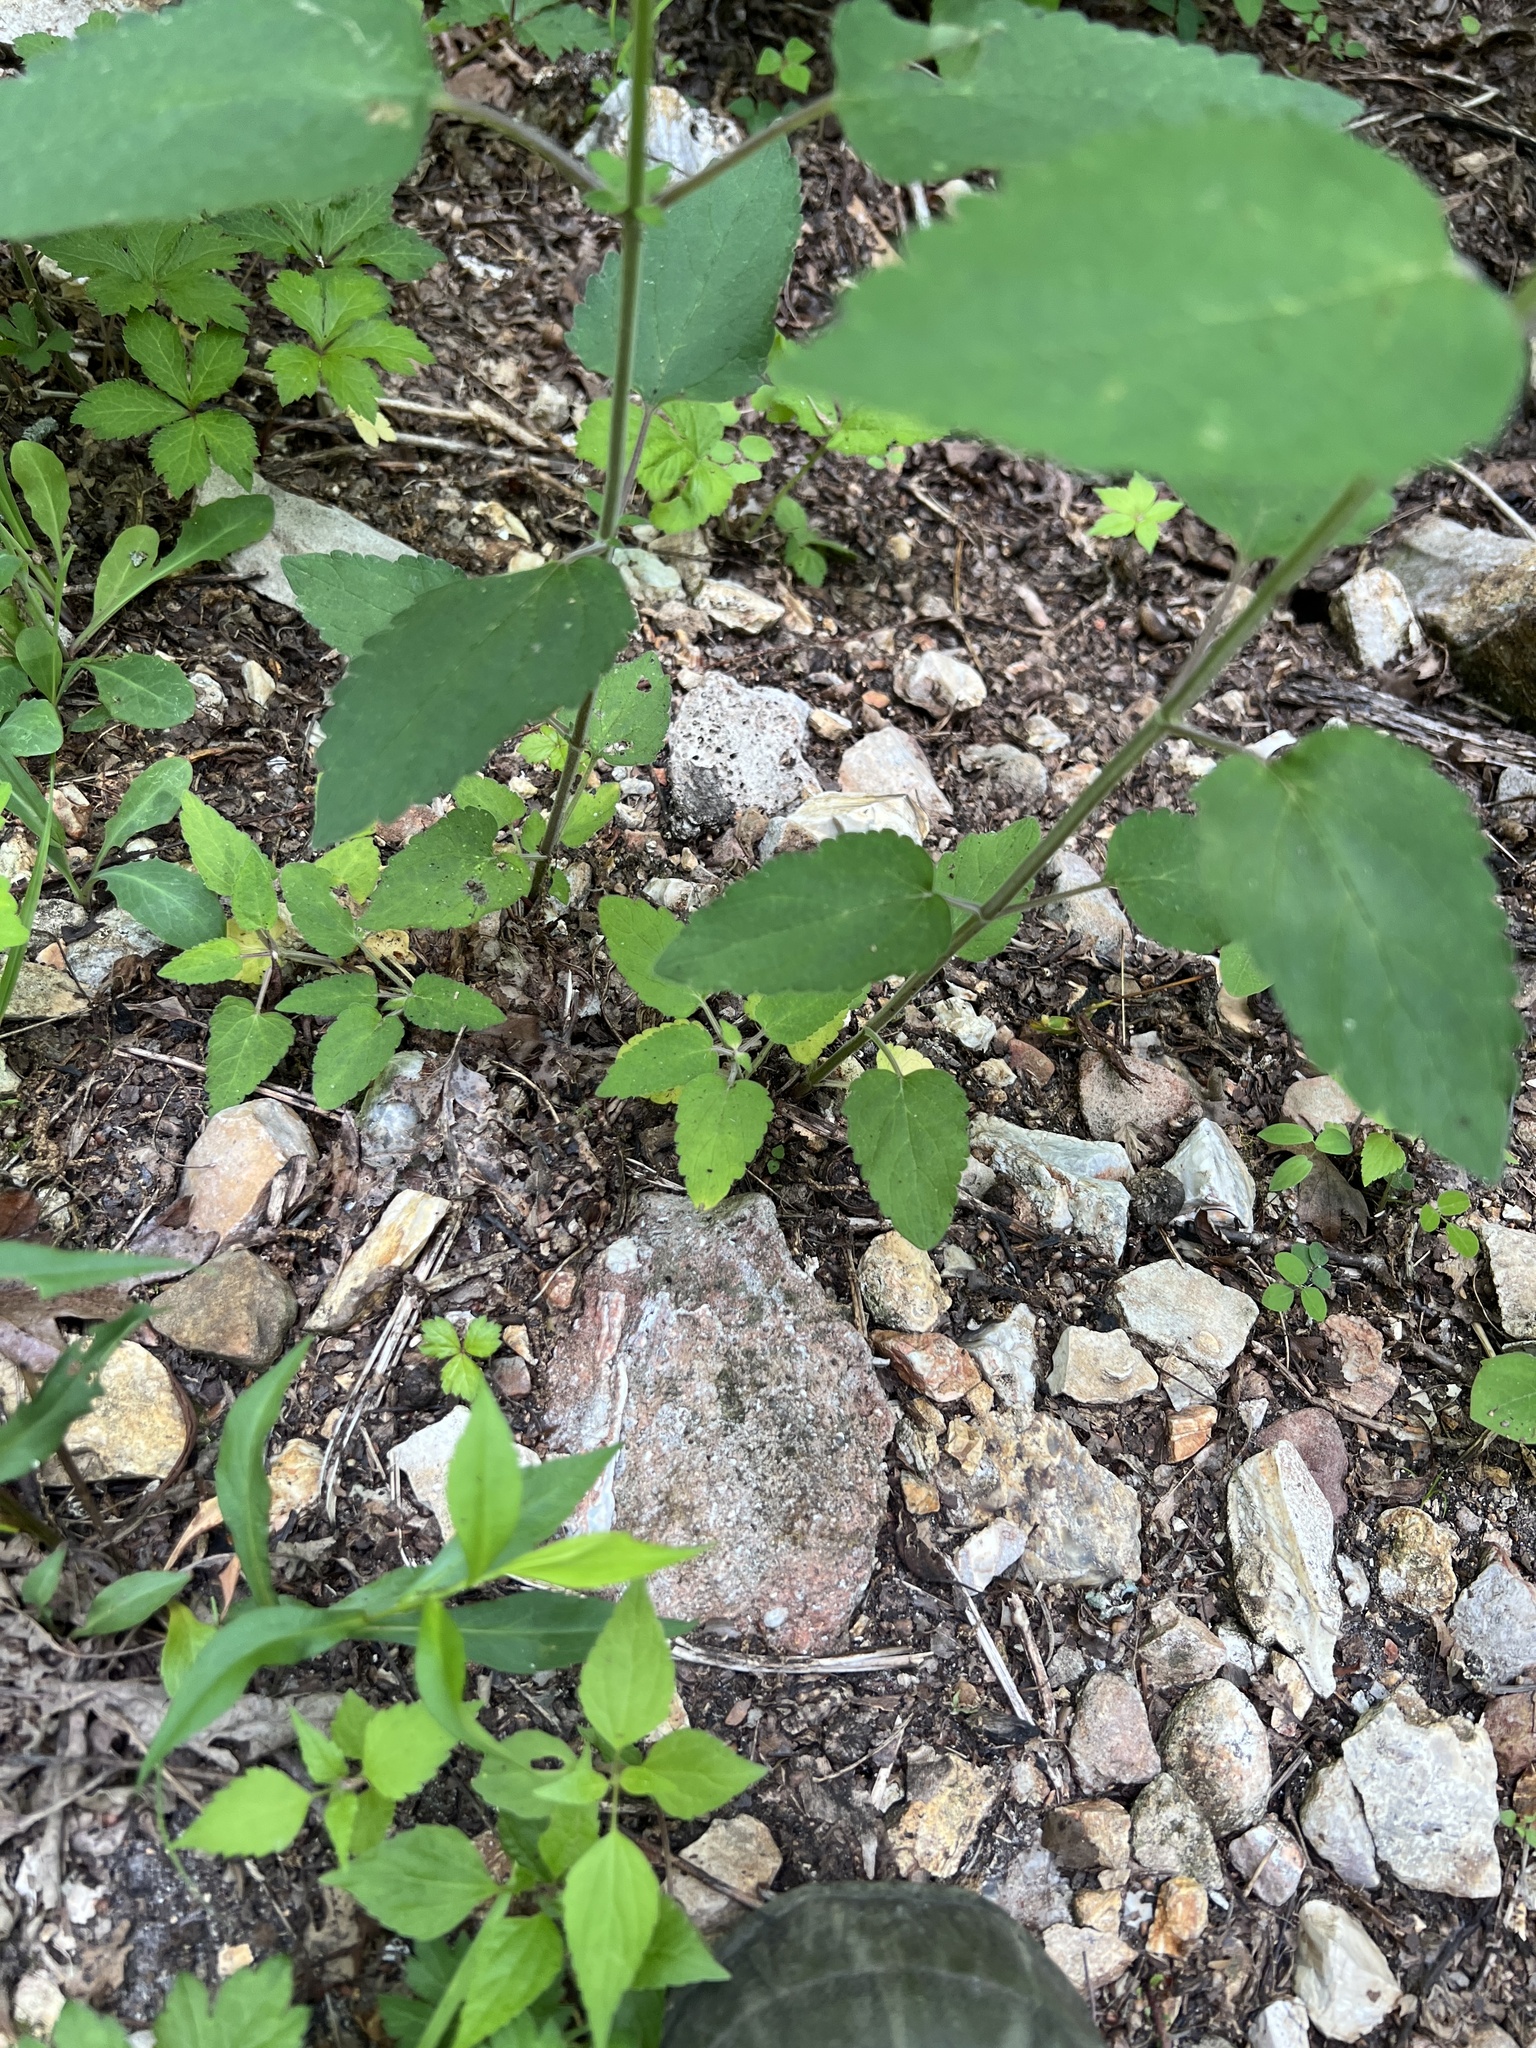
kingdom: Plantae
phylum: Tracheophyta
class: Magnoliopsida
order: Lamiales
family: Lamiaceae
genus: Scutellaria
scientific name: Scutellaria incana
